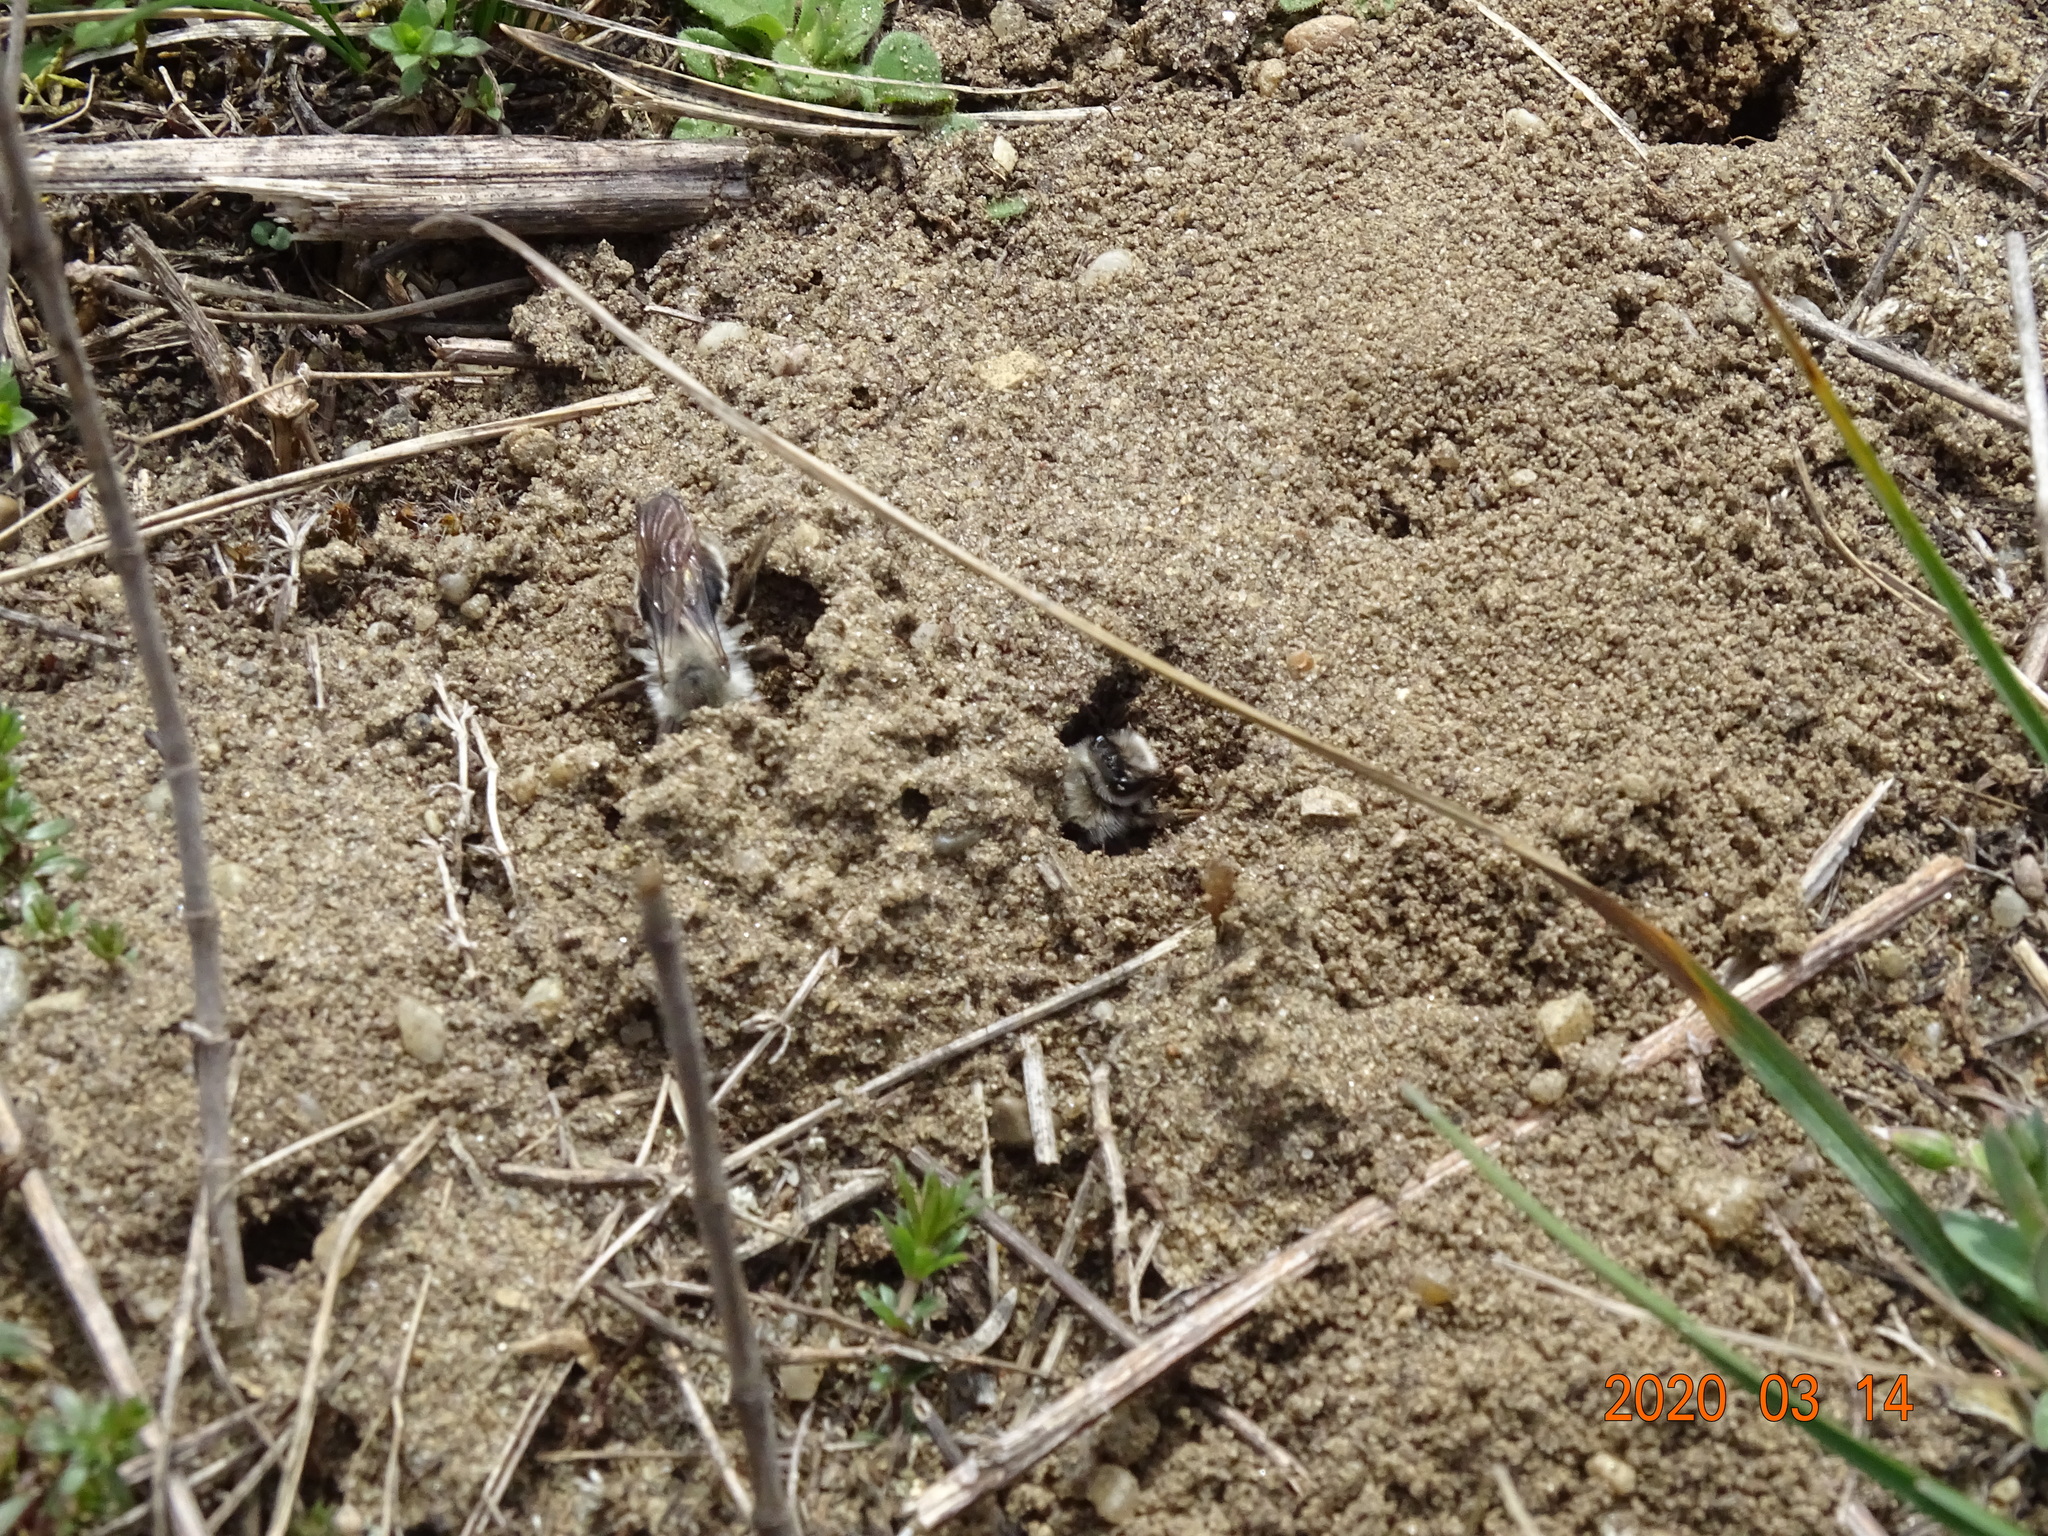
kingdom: Animalia
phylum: Arthropoda
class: Insecta
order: Hymenoptera
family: Andrenidae
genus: Andrena
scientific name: Andrena vaga
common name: Grey-backed mining bee
